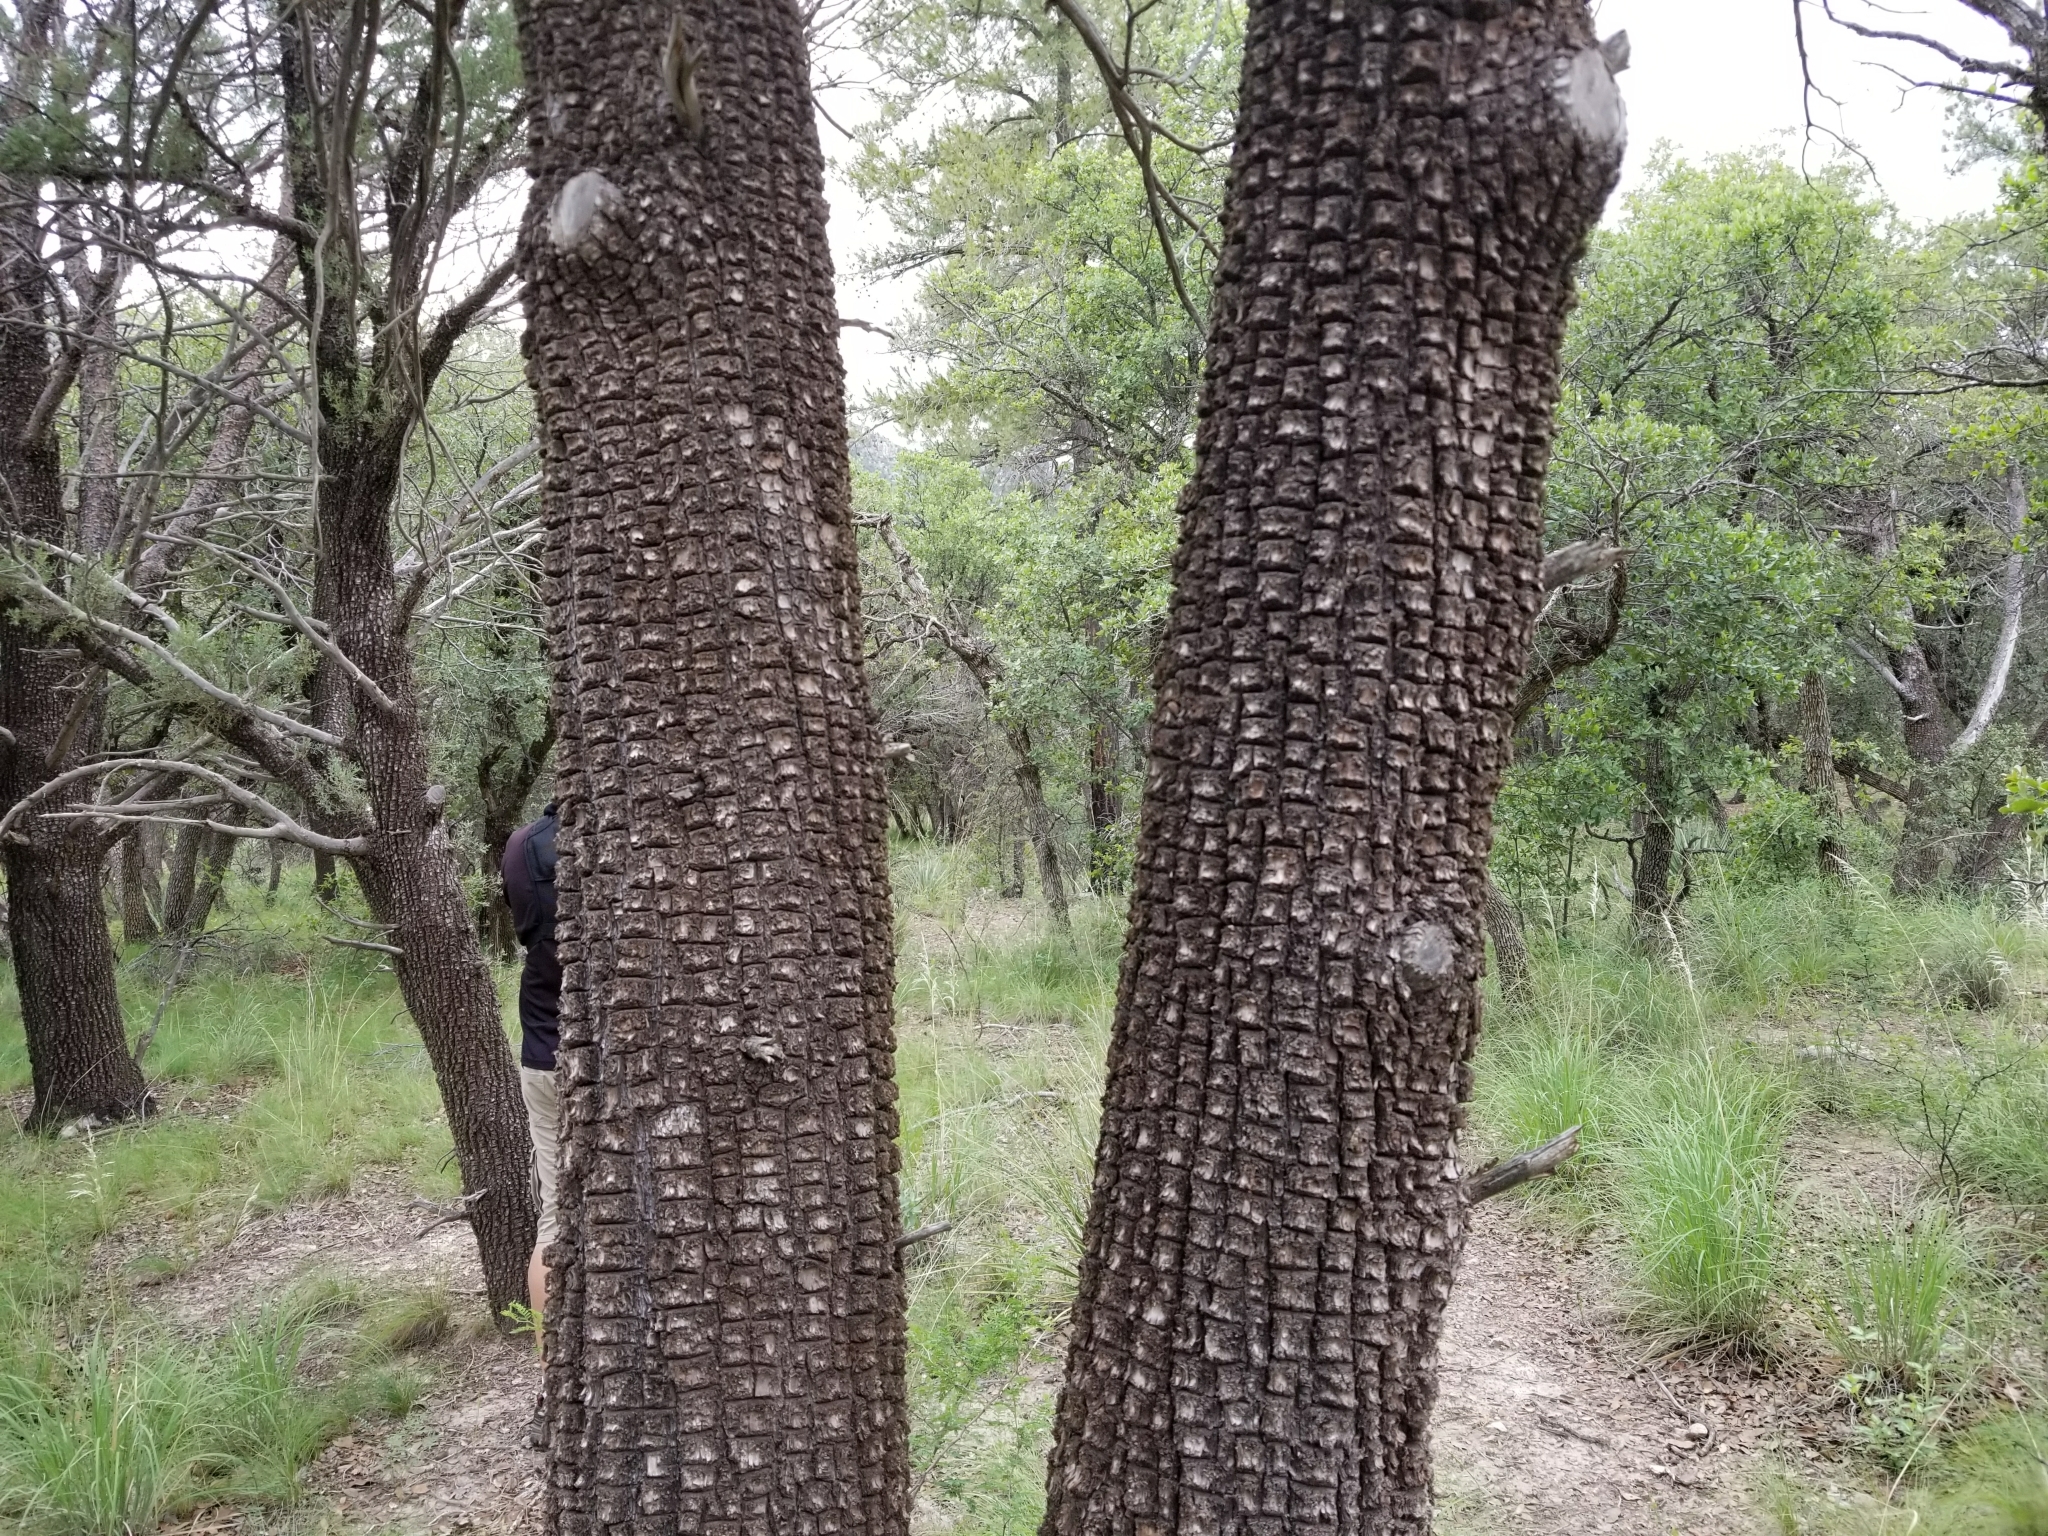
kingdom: Plantae
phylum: Tracheophyta
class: Pinopsida
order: Pinales
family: Cupressaceae
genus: Juniperus
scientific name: Juniperus deppeana
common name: Alligator juniper
